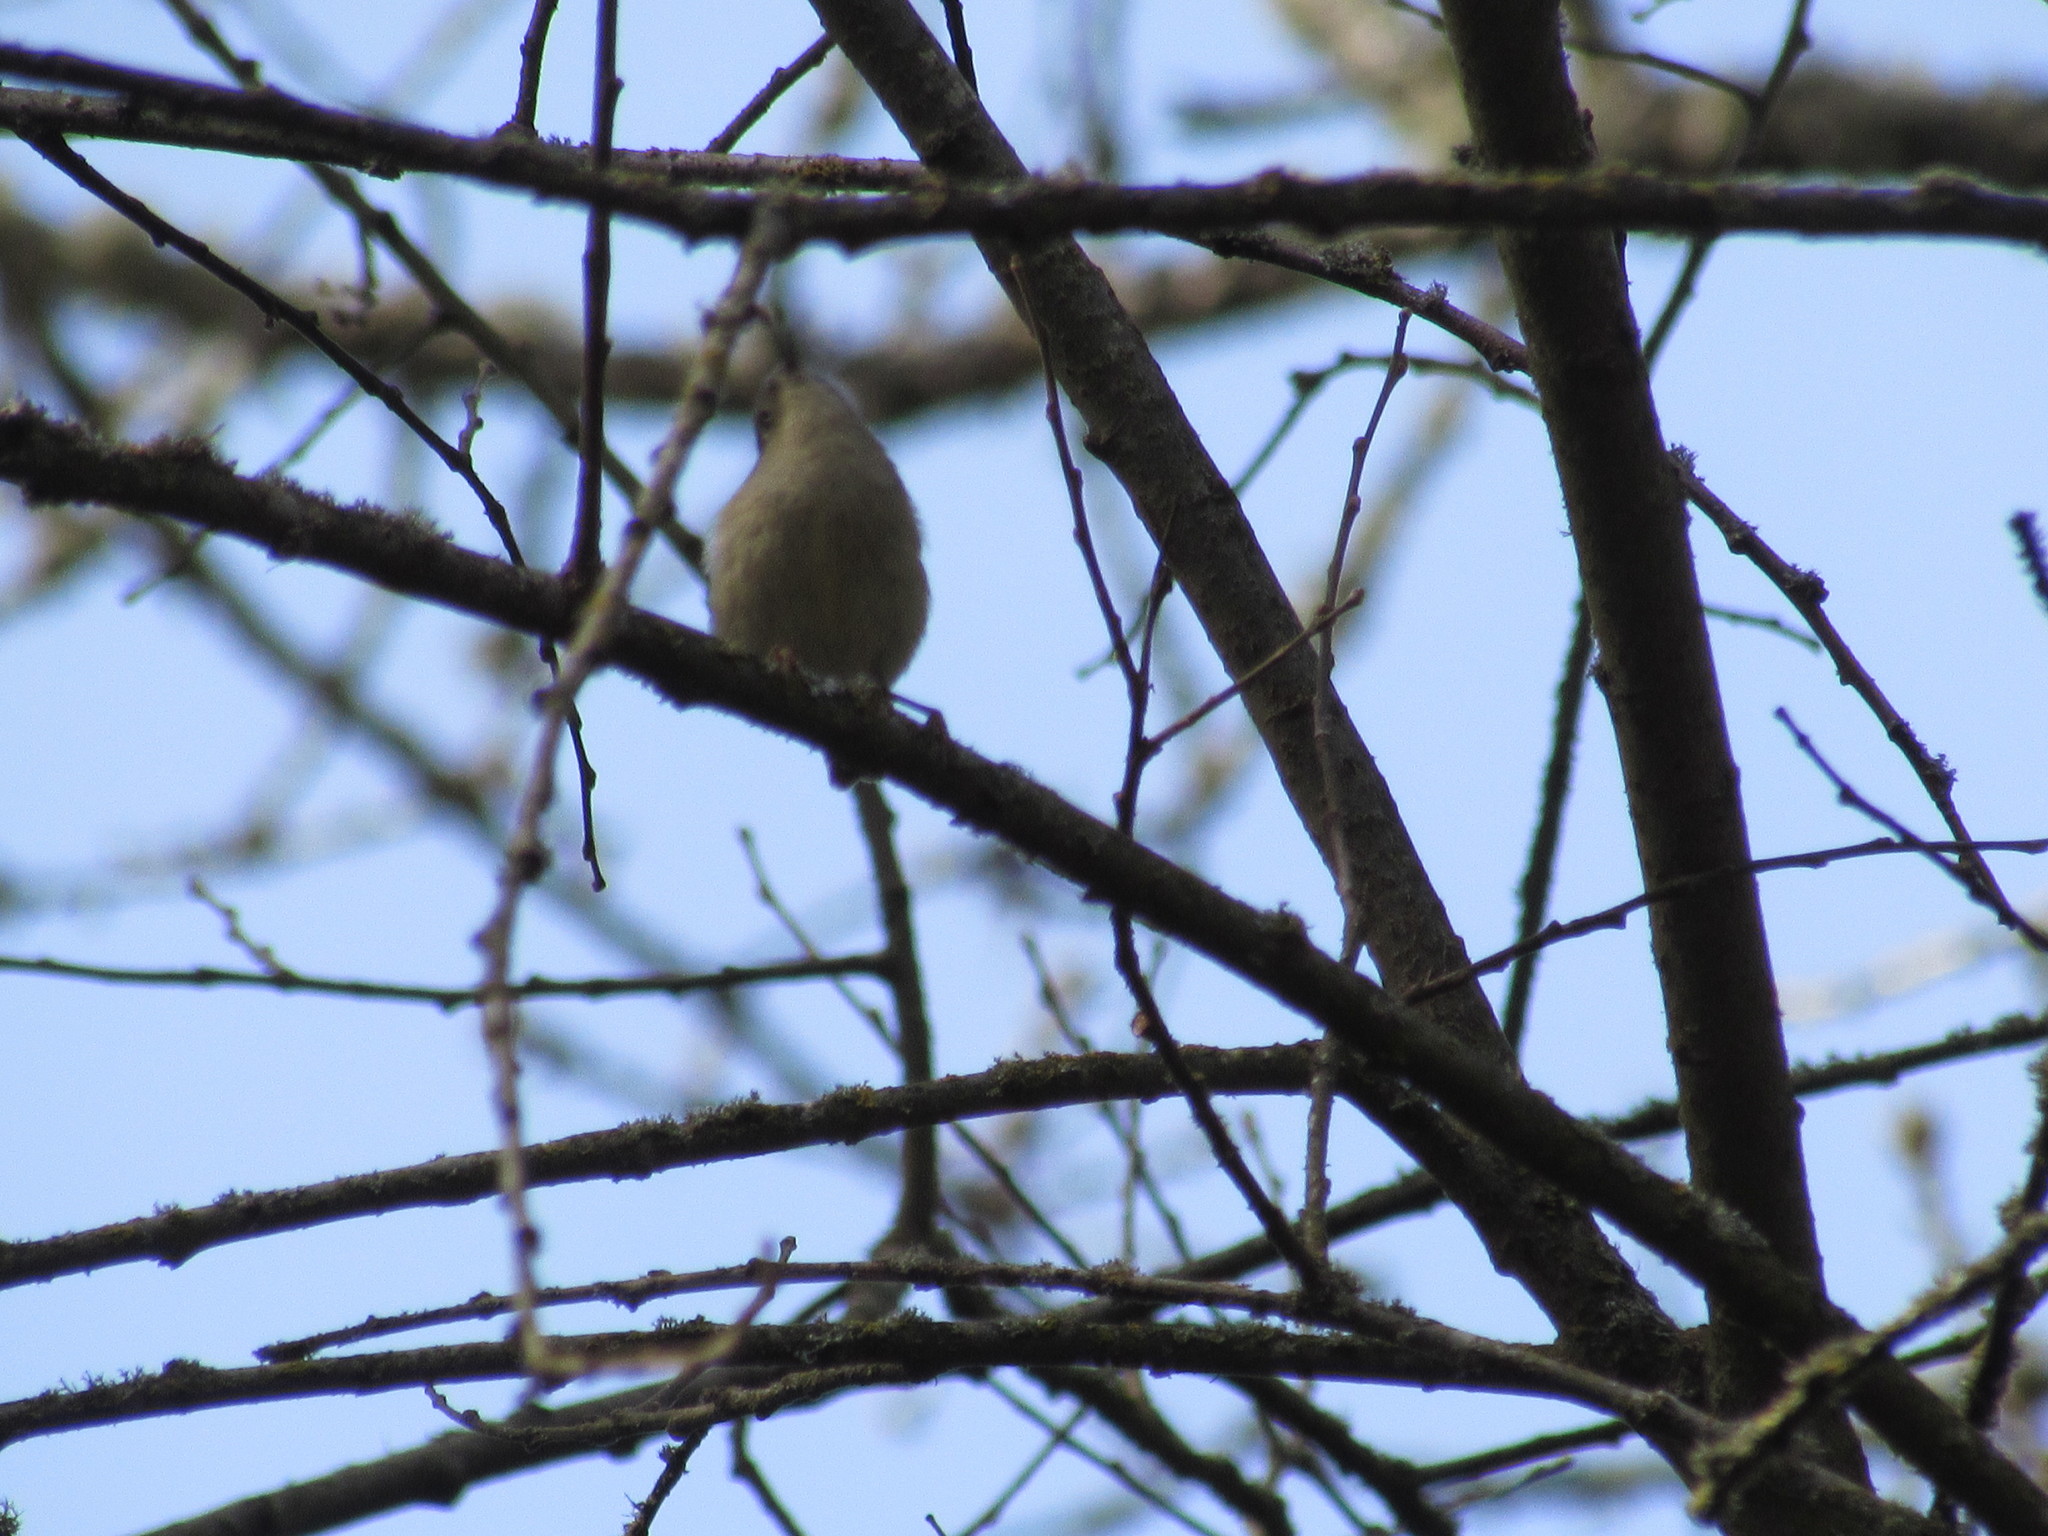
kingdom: Animalia
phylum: Chordata
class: Aves
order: Passeriformes
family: Regulidae
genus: Regulus
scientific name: Regulus calendula
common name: Ruby-crowned kinglet
